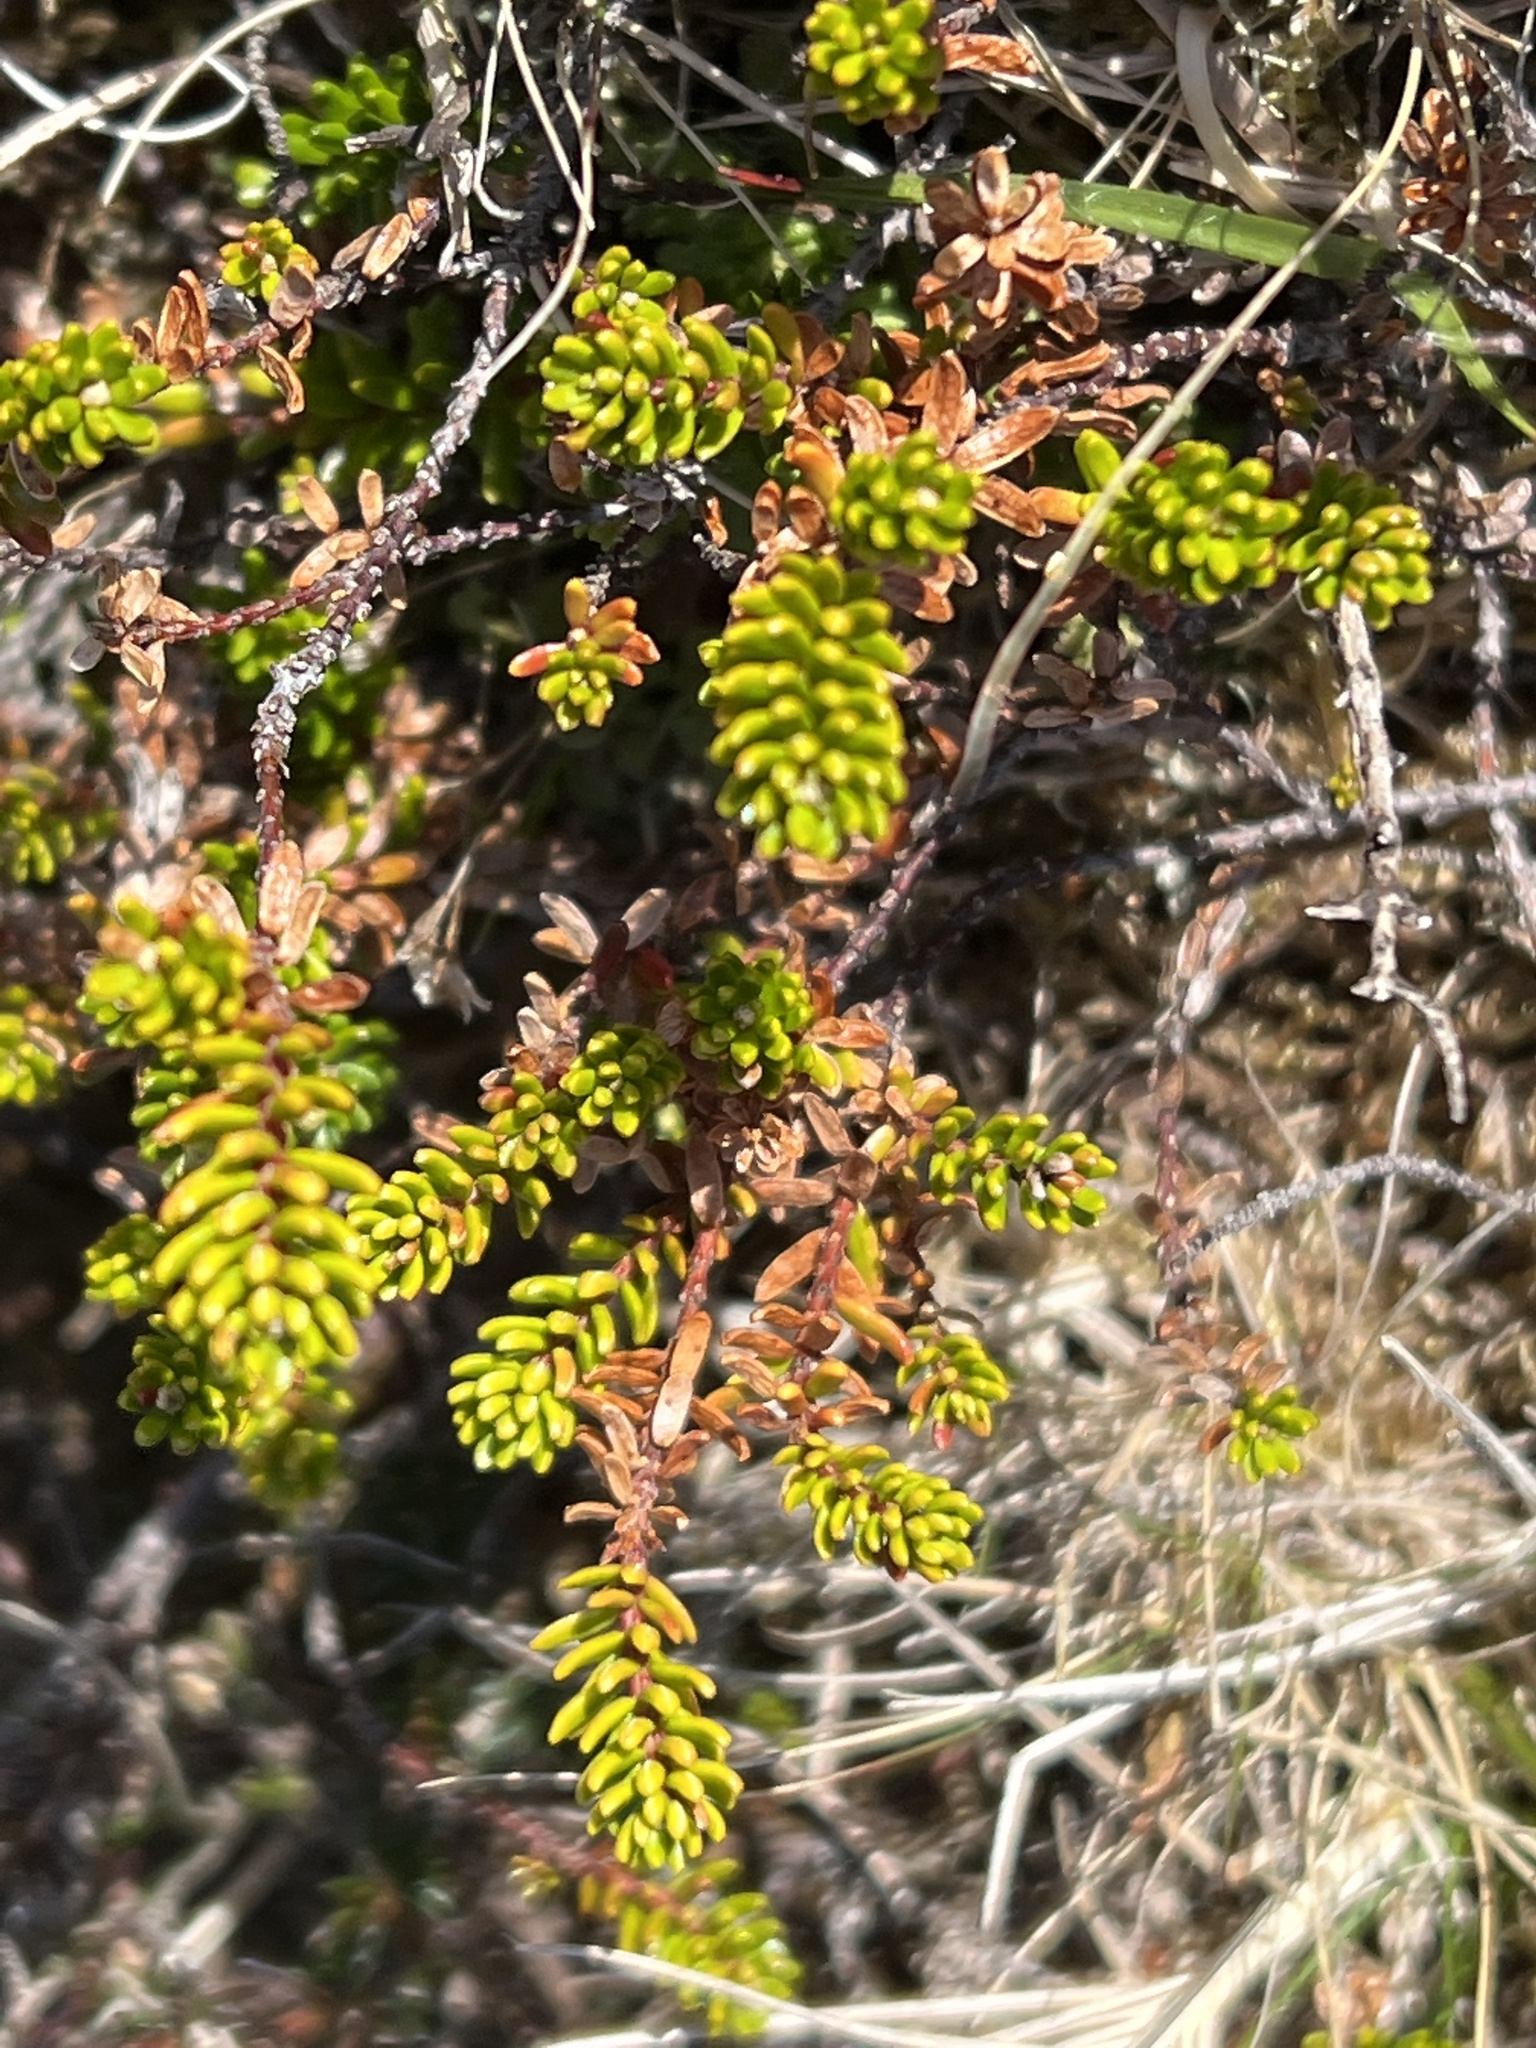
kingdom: Plantae
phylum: Tracheophyta
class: Magnoliopsida
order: Ericales
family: Ericaceae
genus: Empetrum
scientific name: Empetrum nigrum
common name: Black crowberry
